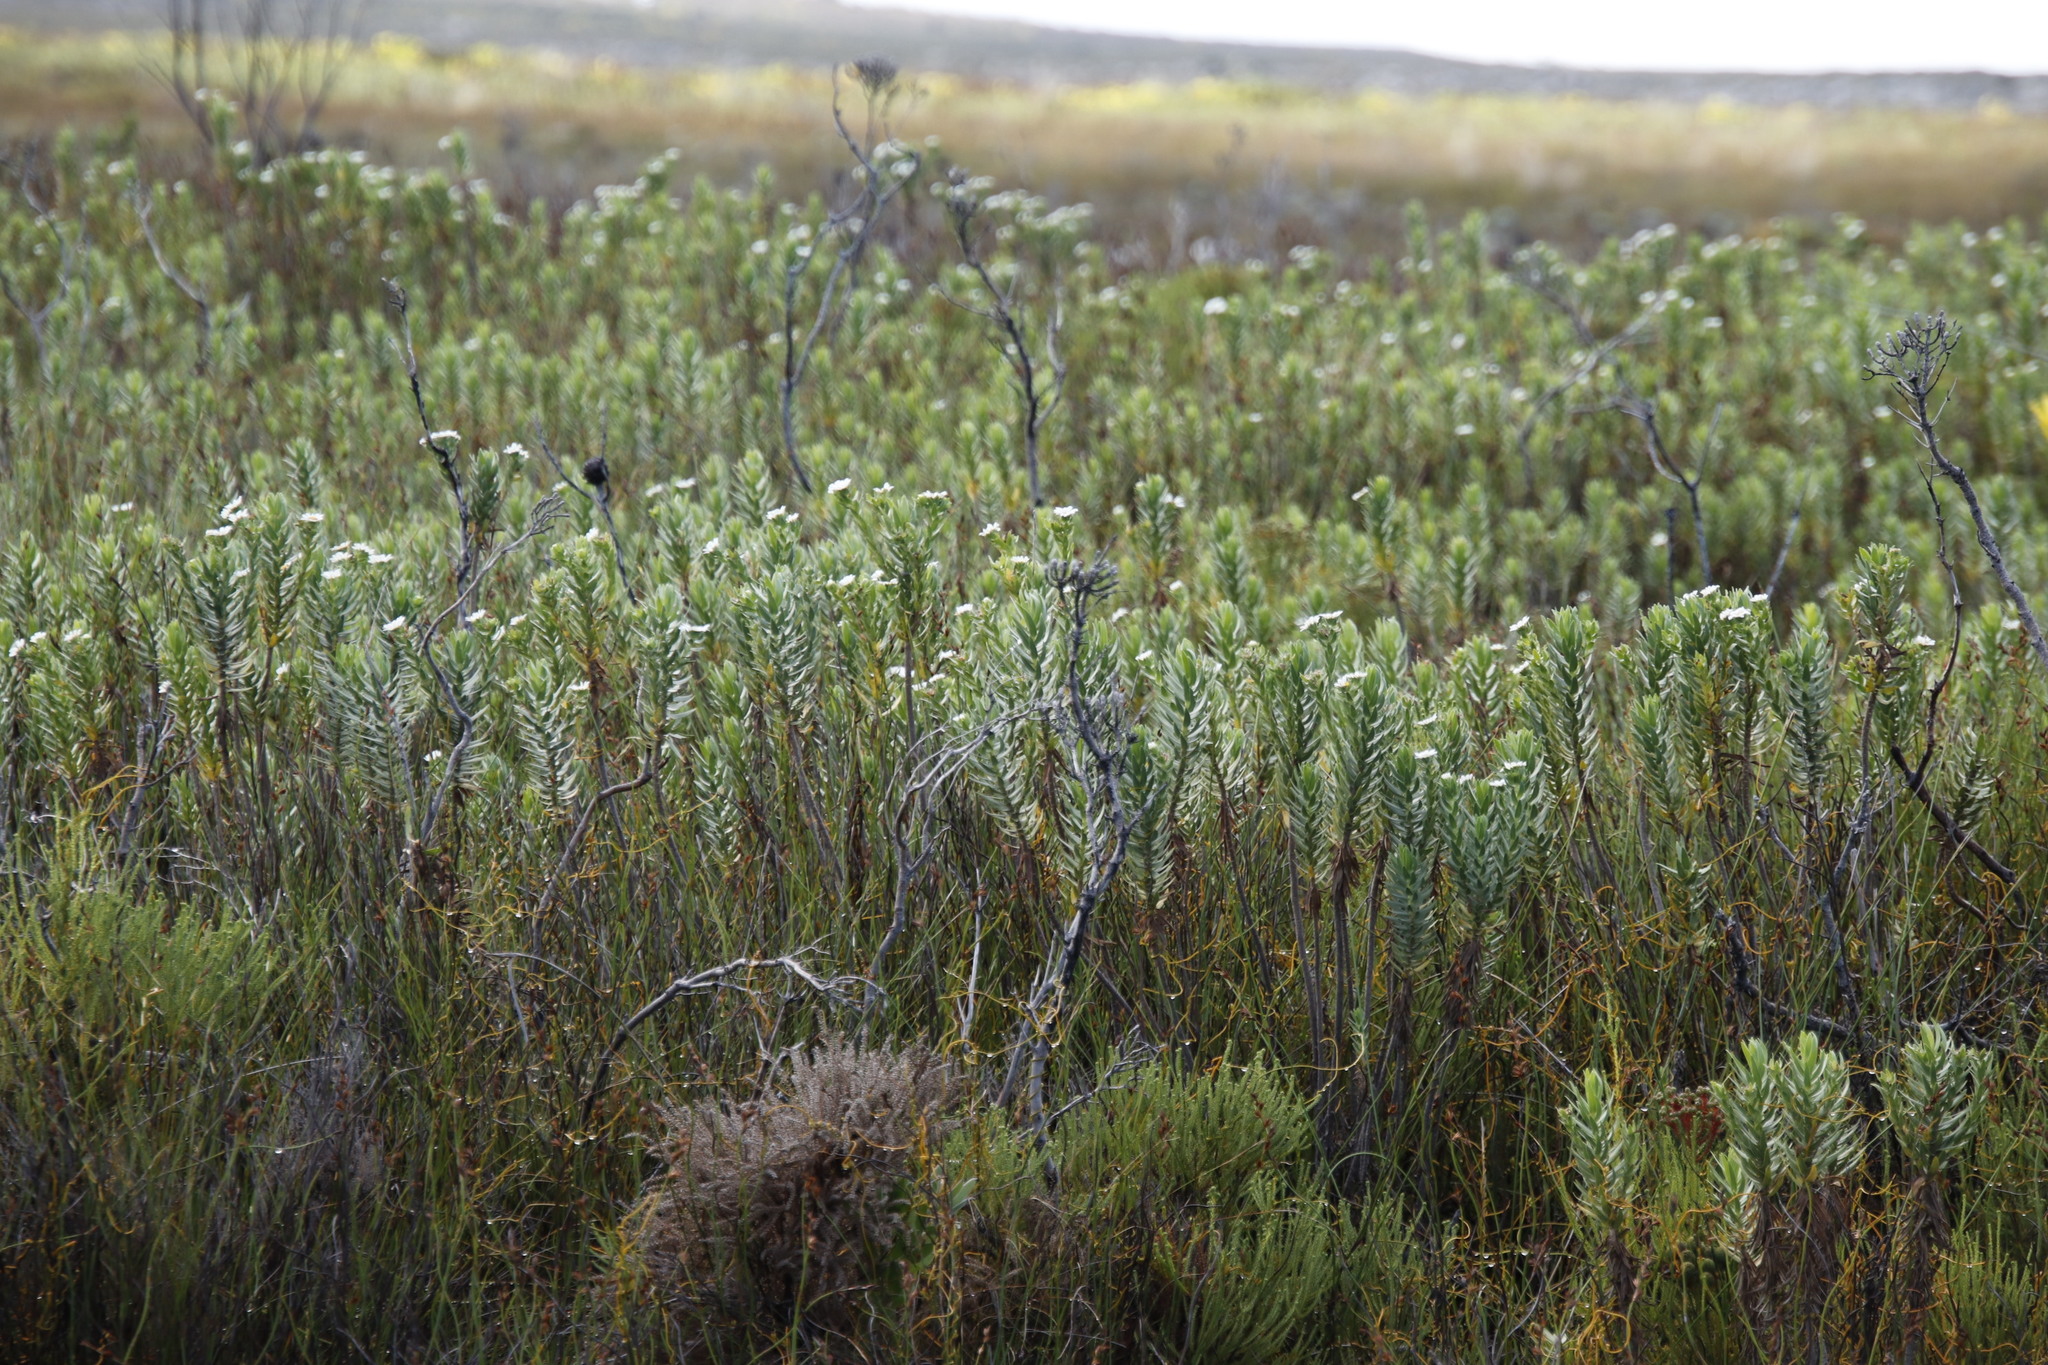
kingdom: Plantae
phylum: Tracheophyta
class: Magnoliopsida
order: Asterales
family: Asteraceae
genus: Osmitopsis
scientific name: Osmitopsis asteriscoides
